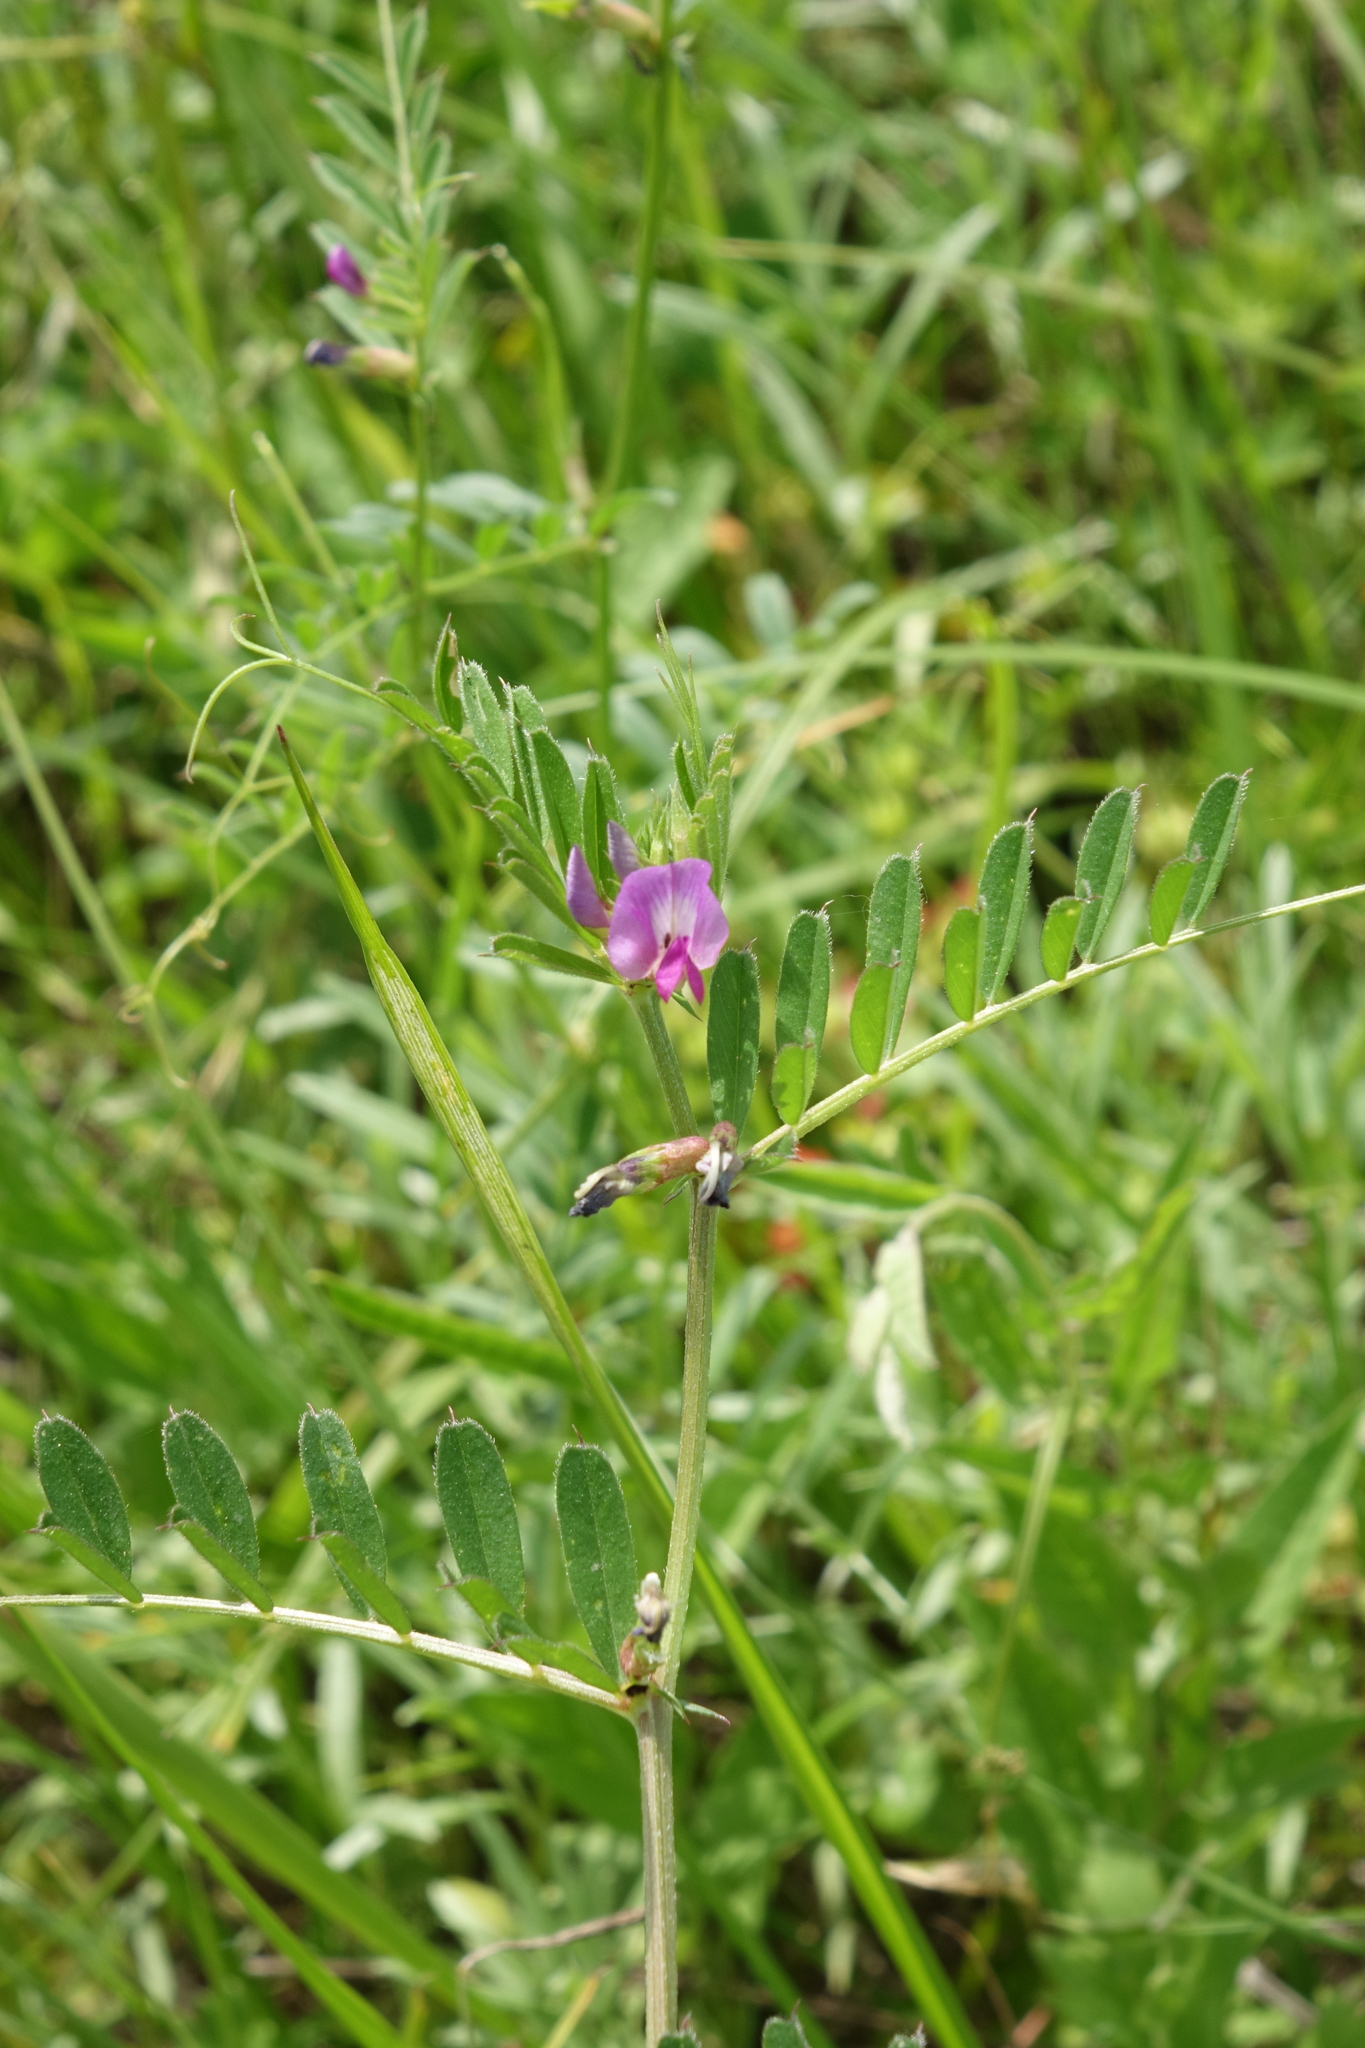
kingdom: Plantae
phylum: Tracheophyta
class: Magnoliopsida
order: Fabales
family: Fabaceae
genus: Vicia
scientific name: Vicia sativa
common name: Garden vetch
